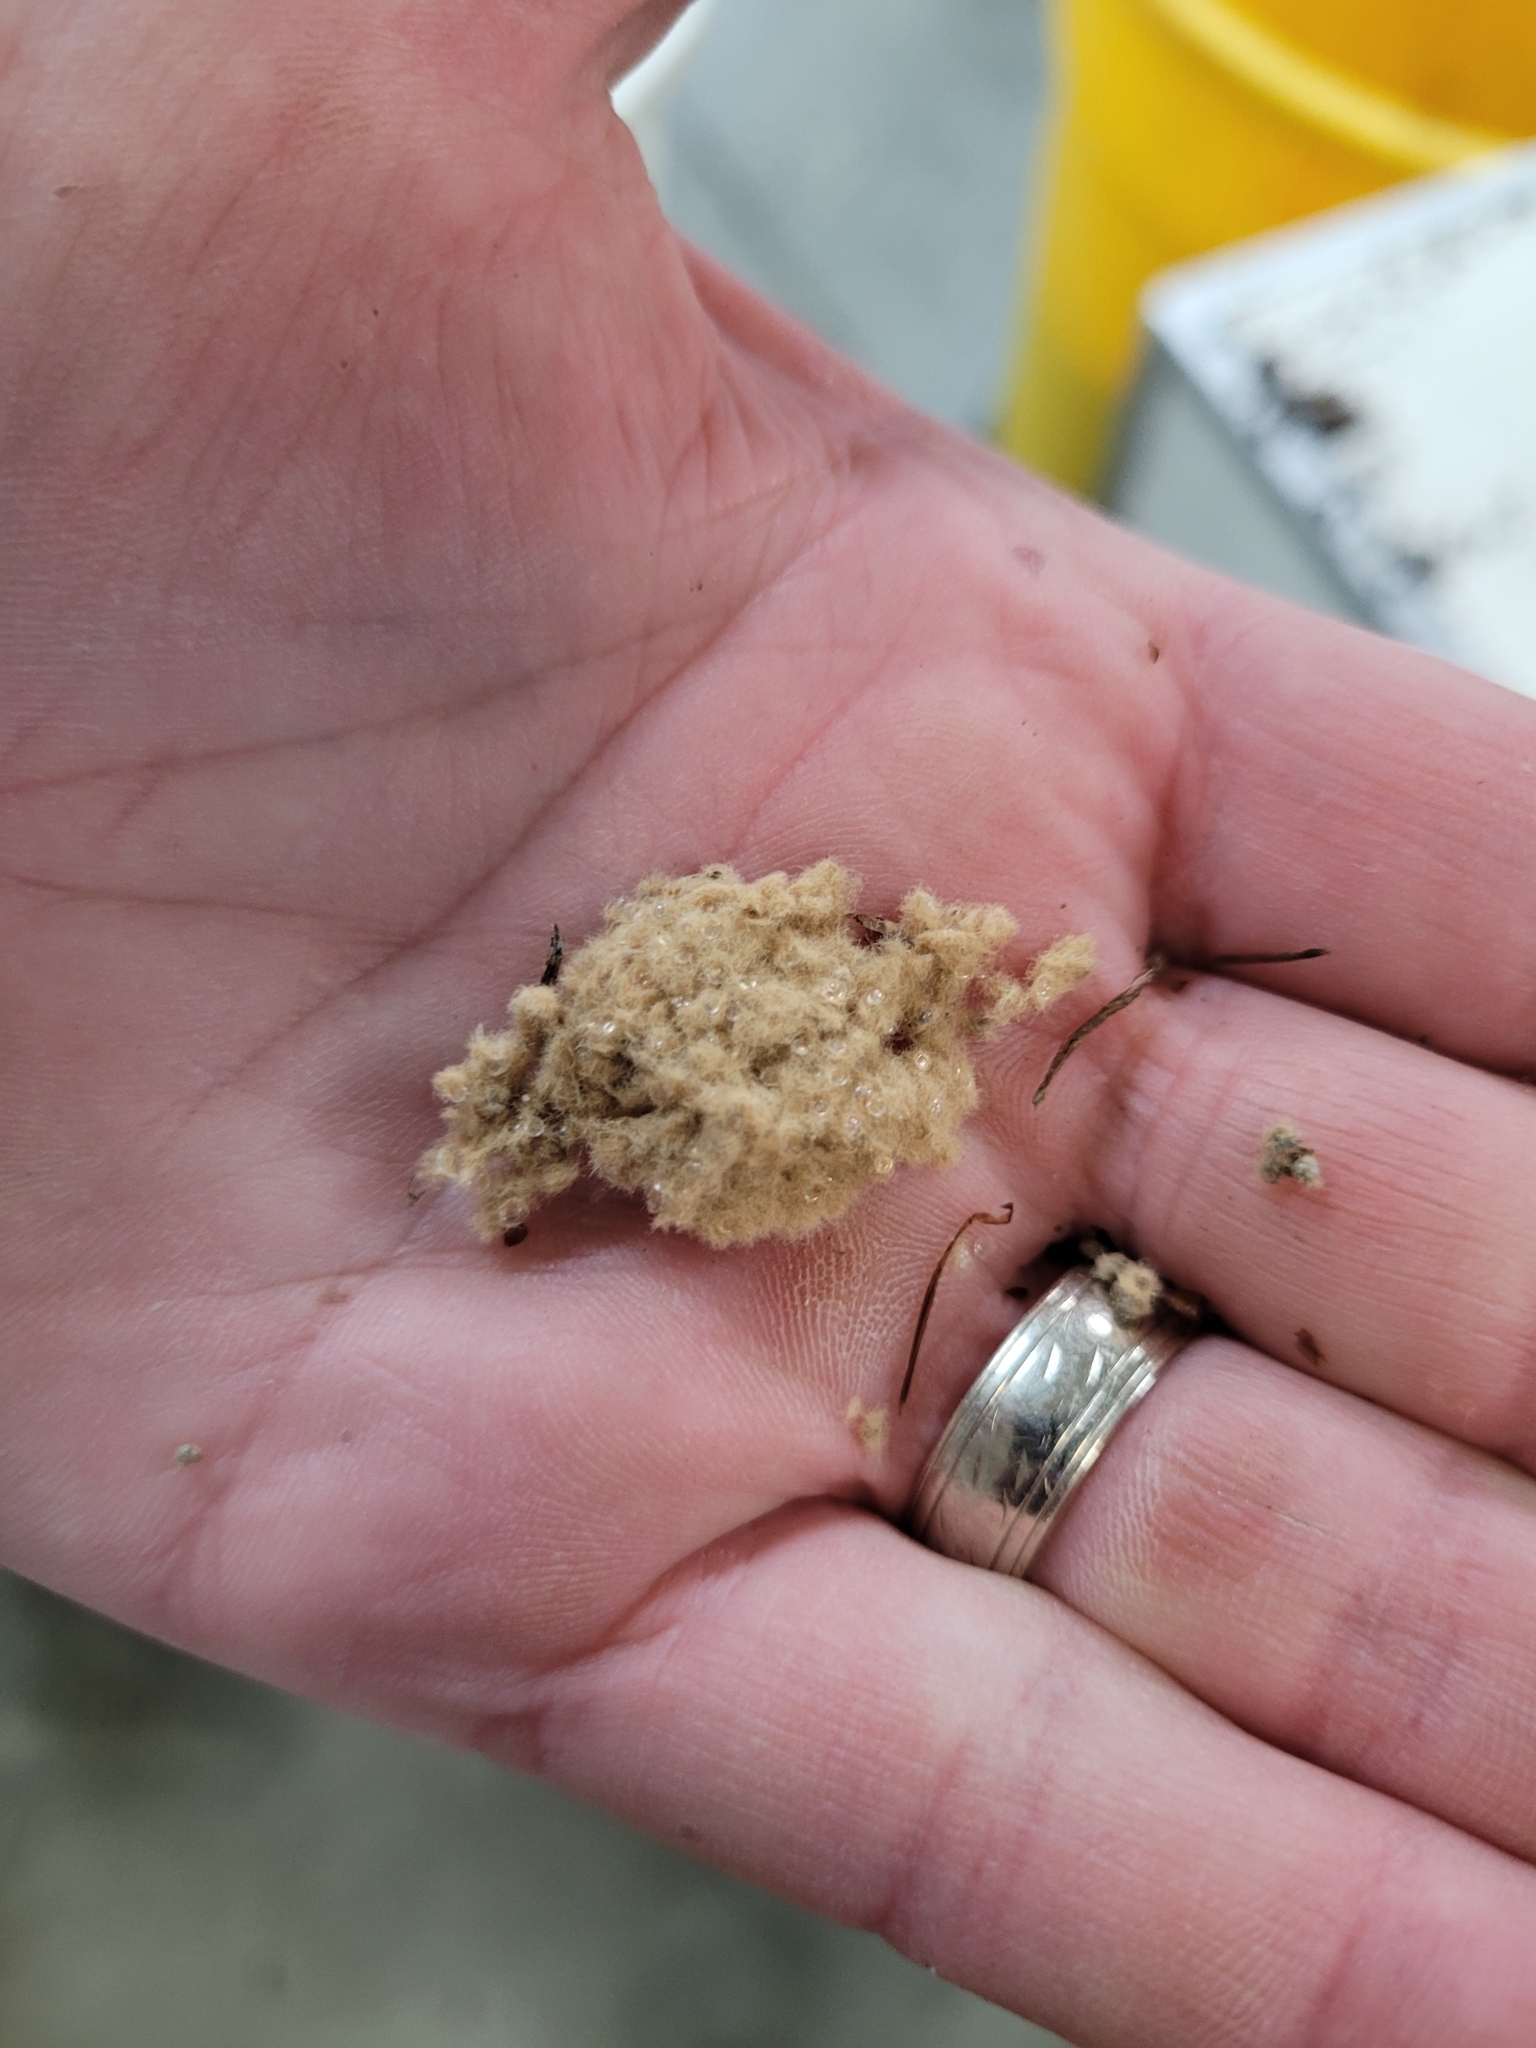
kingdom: Animalia
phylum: Arthropoda
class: Insecta
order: Lepidoptera
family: Erebidae
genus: Lymantria
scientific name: Lymantria dispar
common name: Gypsy moth
